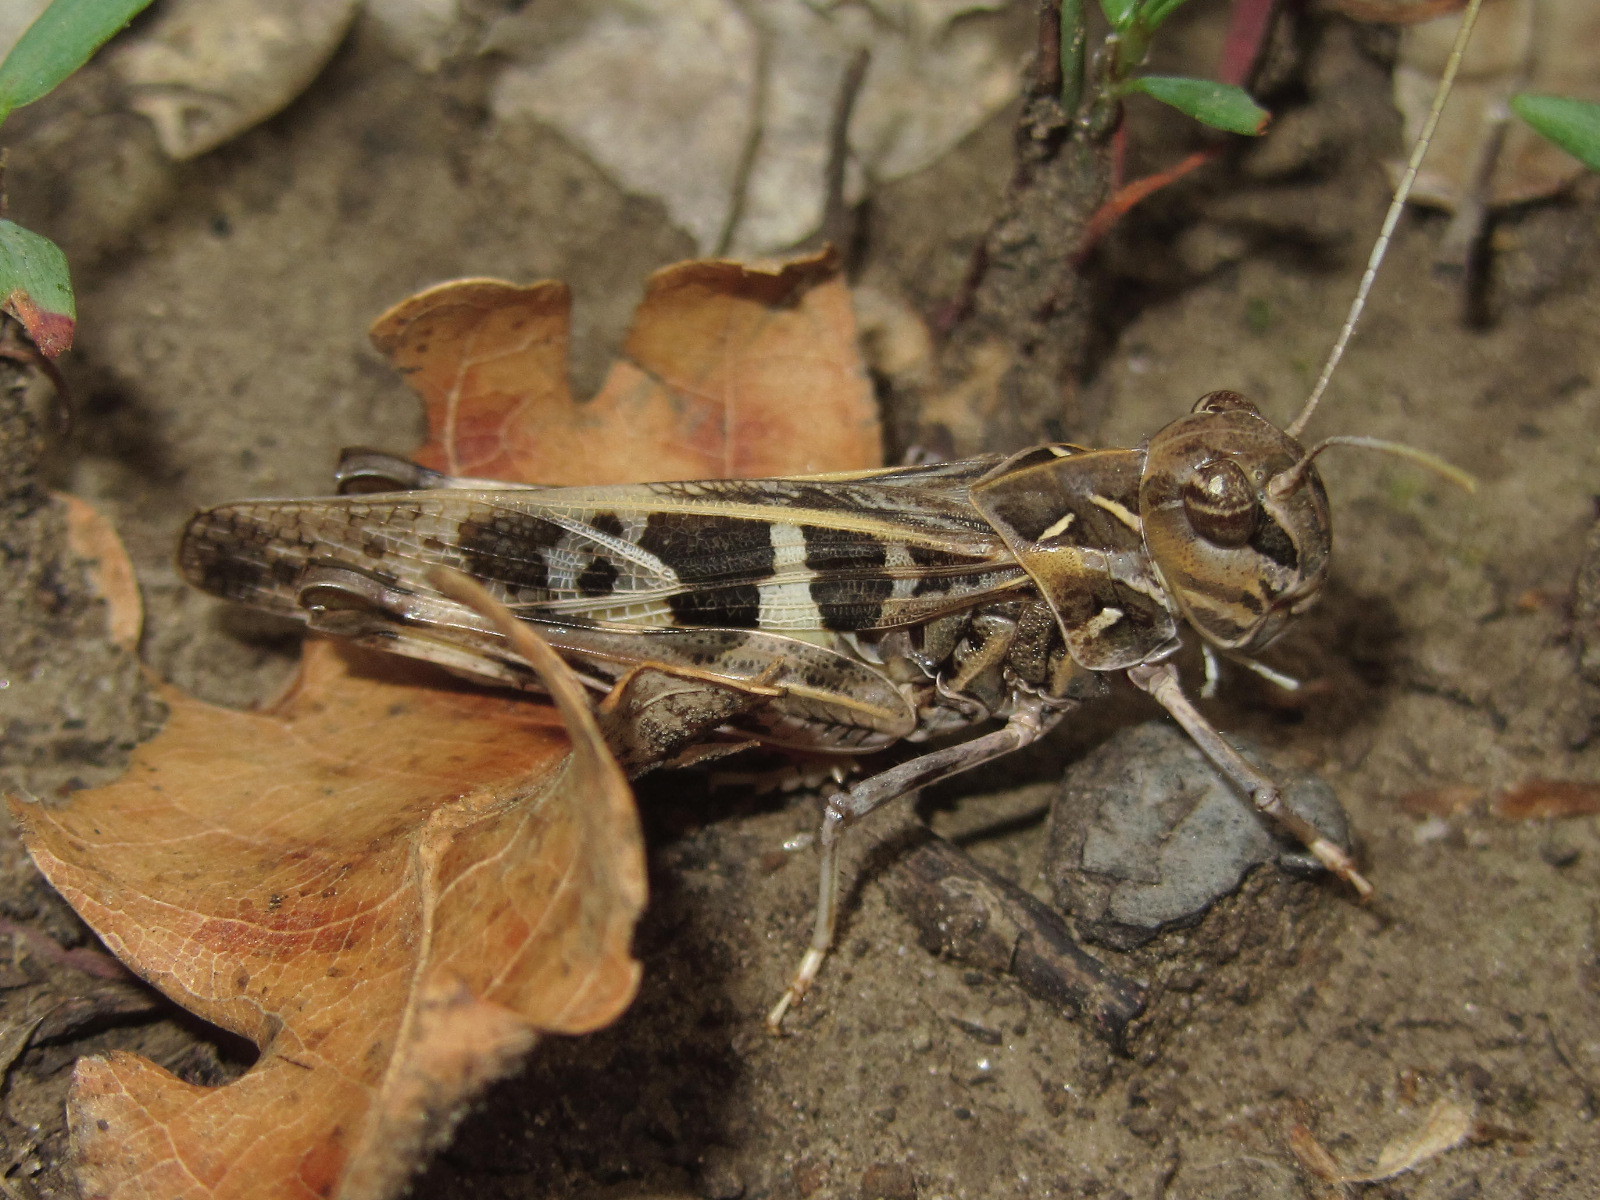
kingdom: Animalia
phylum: Arthropoda
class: Insecta
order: Orthoptera
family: Acrididae
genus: Oedaleus
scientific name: Oedaleus decorus
